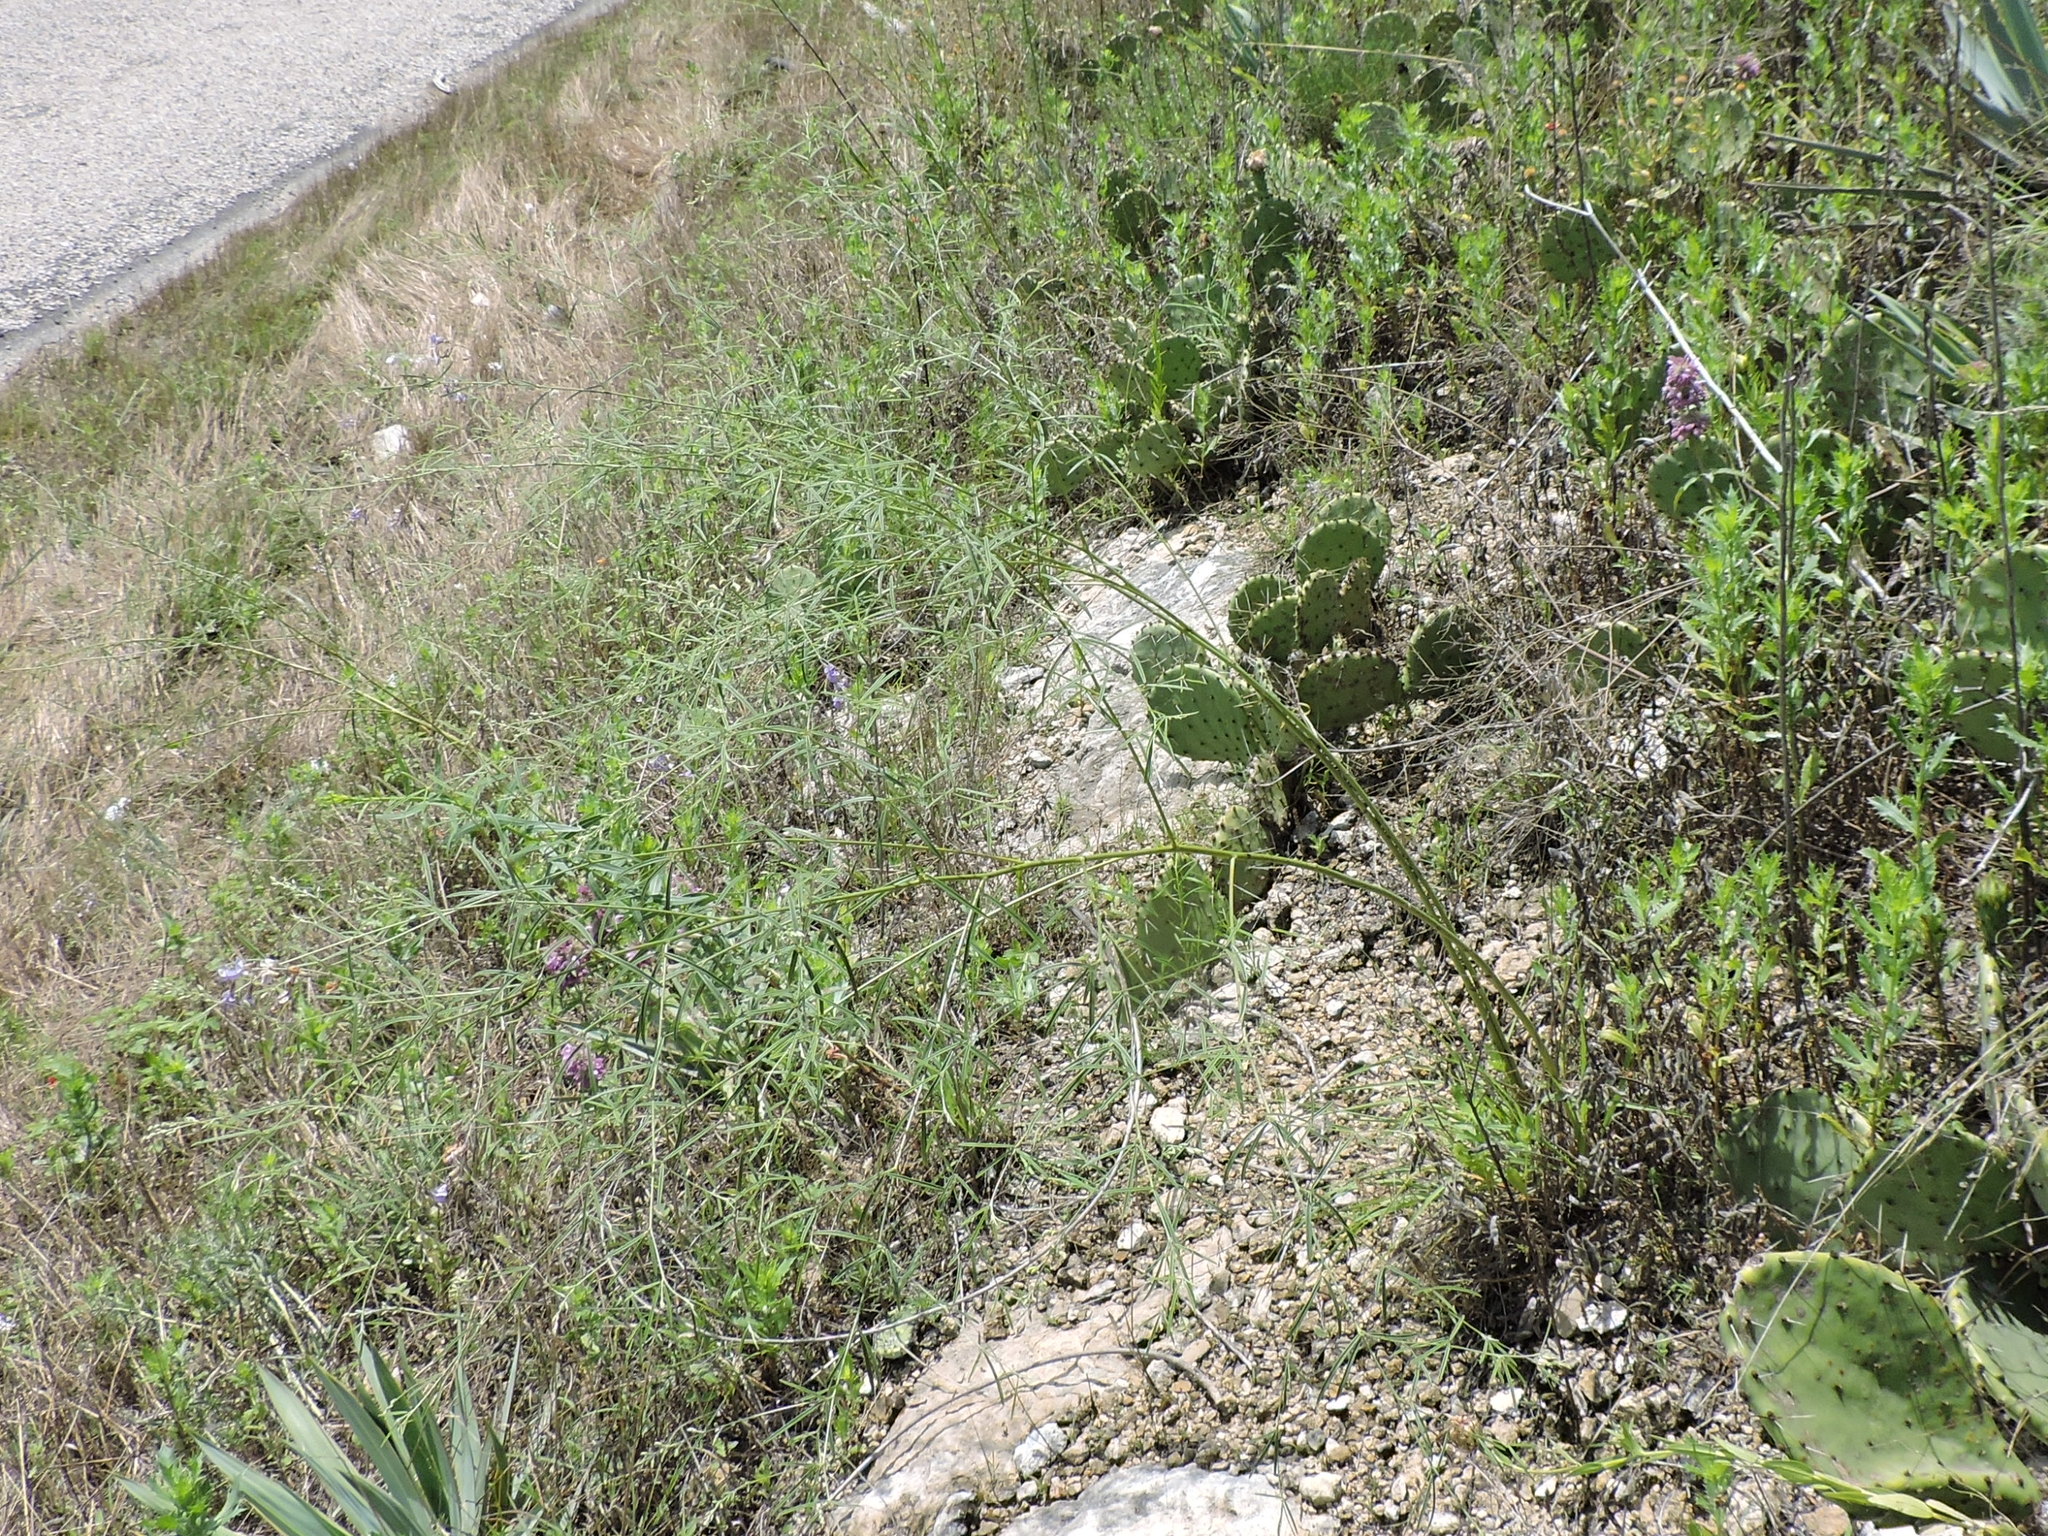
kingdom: Plantae
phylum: Tracheophyta
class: Magnoliopsida
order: Fabales
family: Fabaceae
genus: Pediomelum
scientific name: Pediomelum linearifolium
